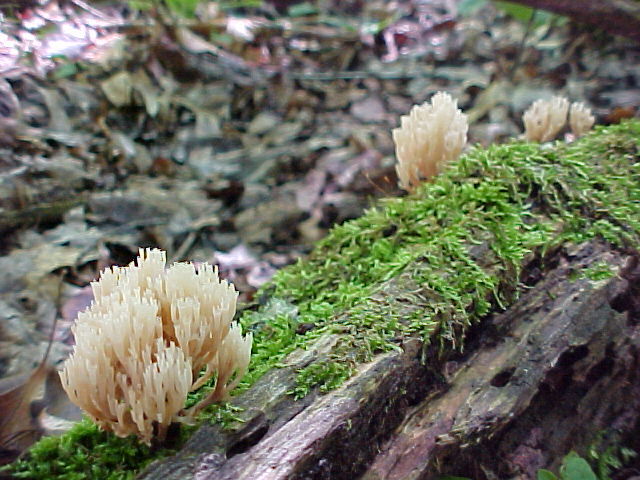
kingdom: Fungi
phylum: Basidiomycota
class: Agaricomycetes
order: Russulales
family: Auriscalpiaceae
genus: Artomyces
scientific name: Artomyces pyxidatus
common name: Crown-tipped coral fungus
